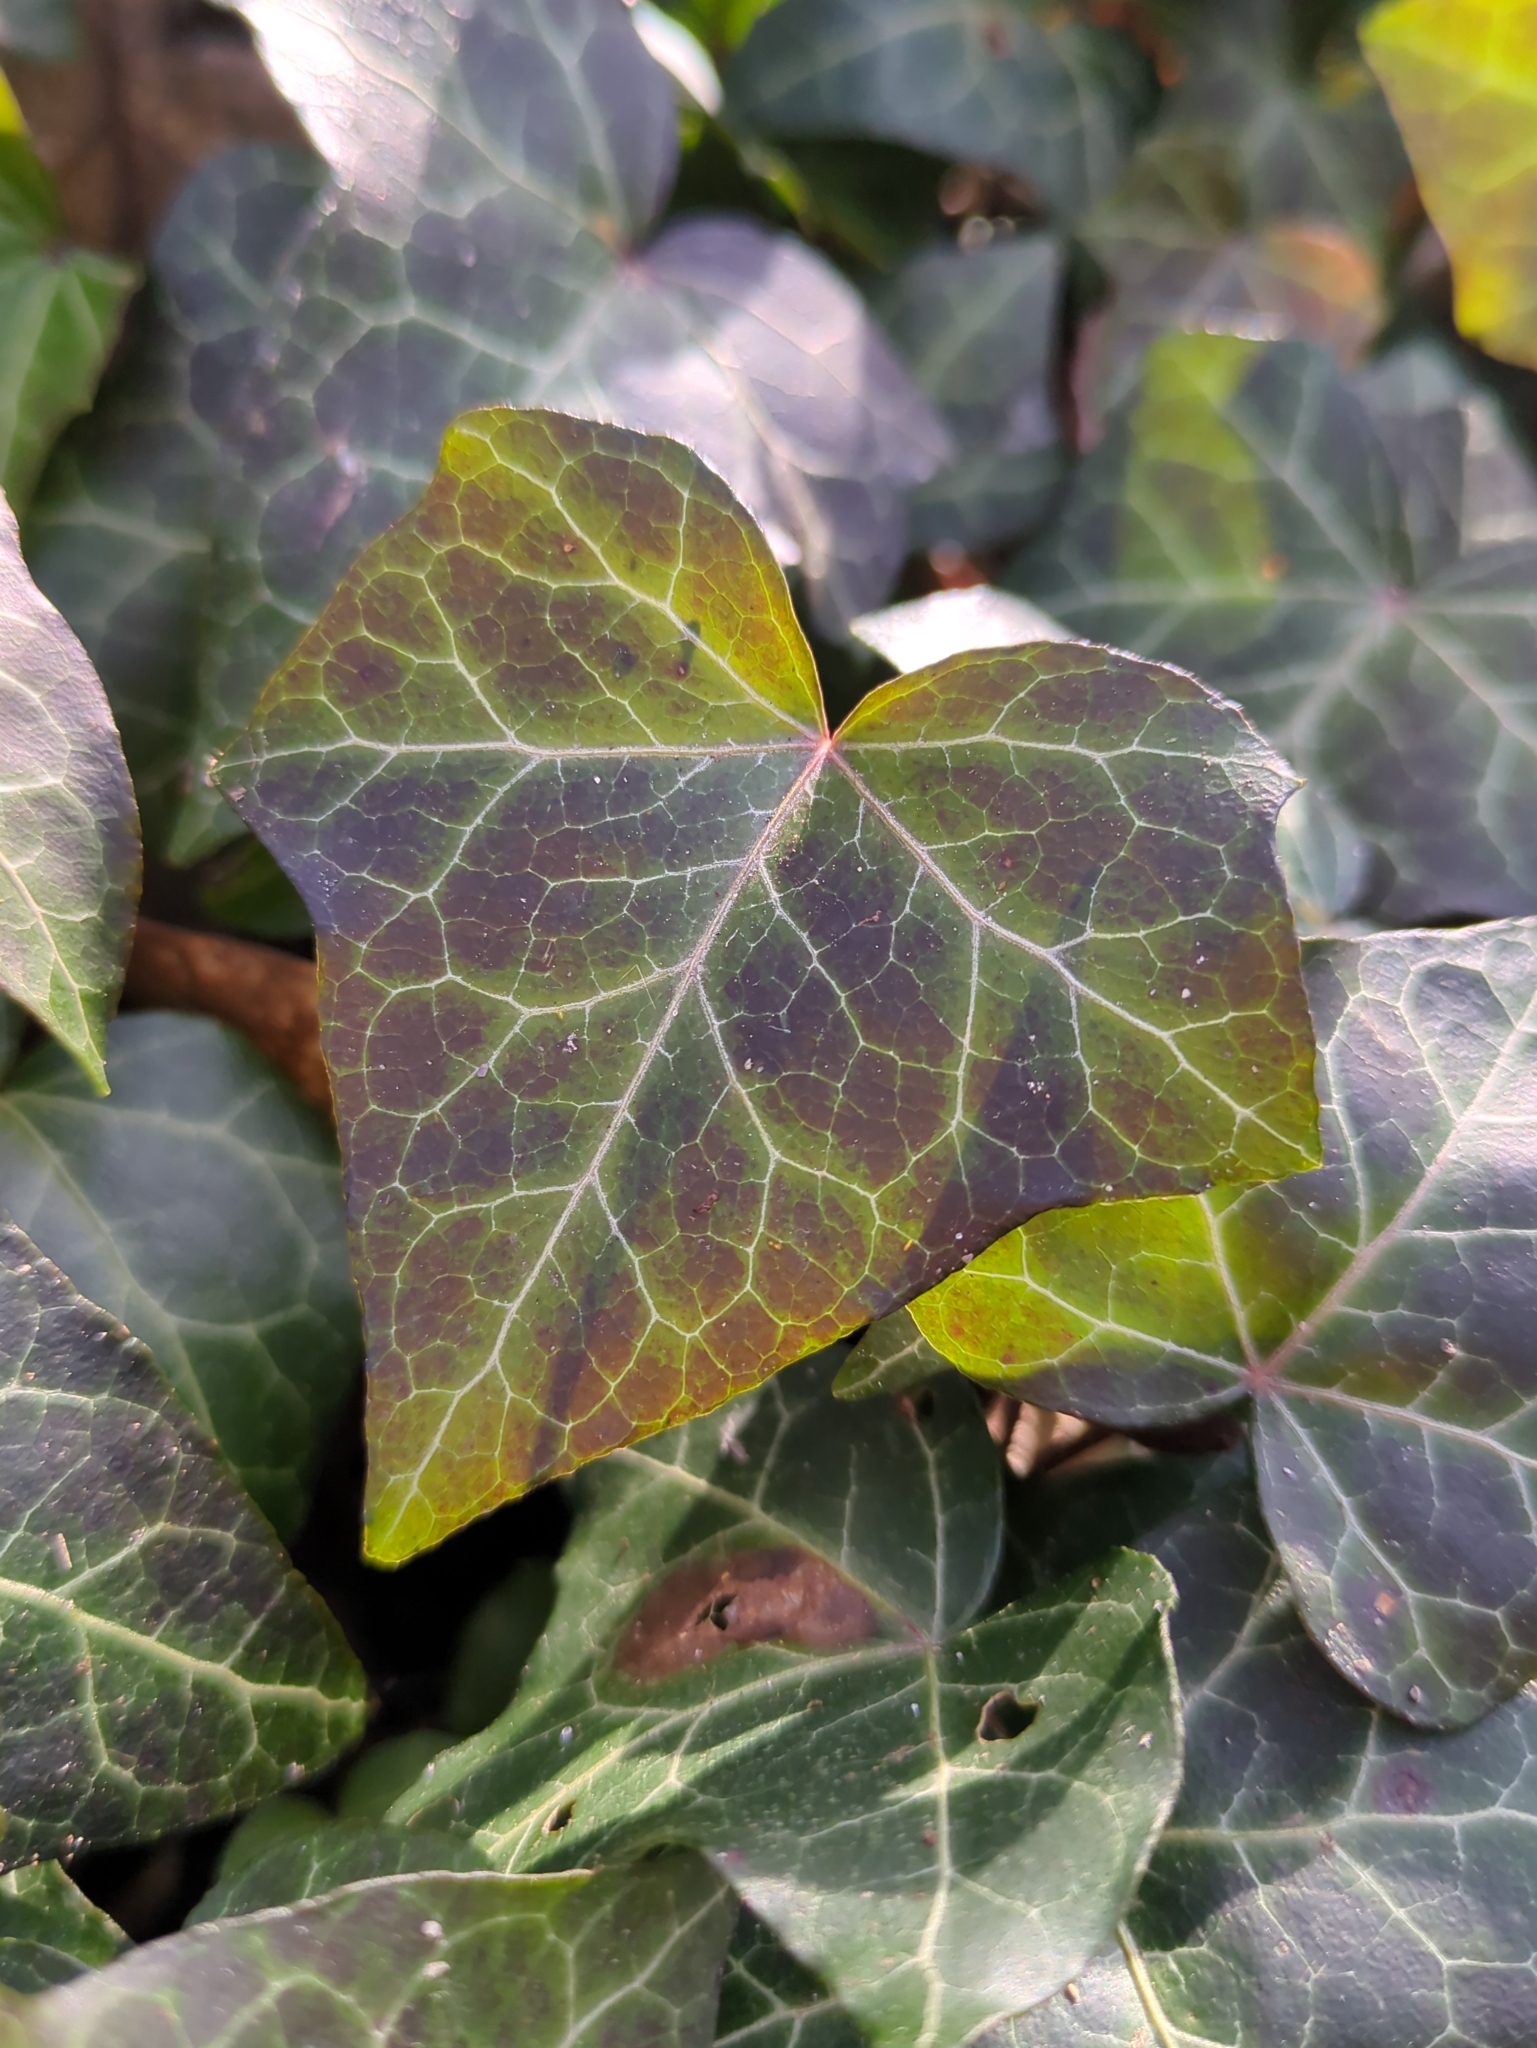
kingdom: Plantae
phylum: Tracheophyta
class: Magnoliopsida
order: Apiales
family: Araliaceae
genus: Hedera
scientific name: Hedera helix
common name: Ivy
